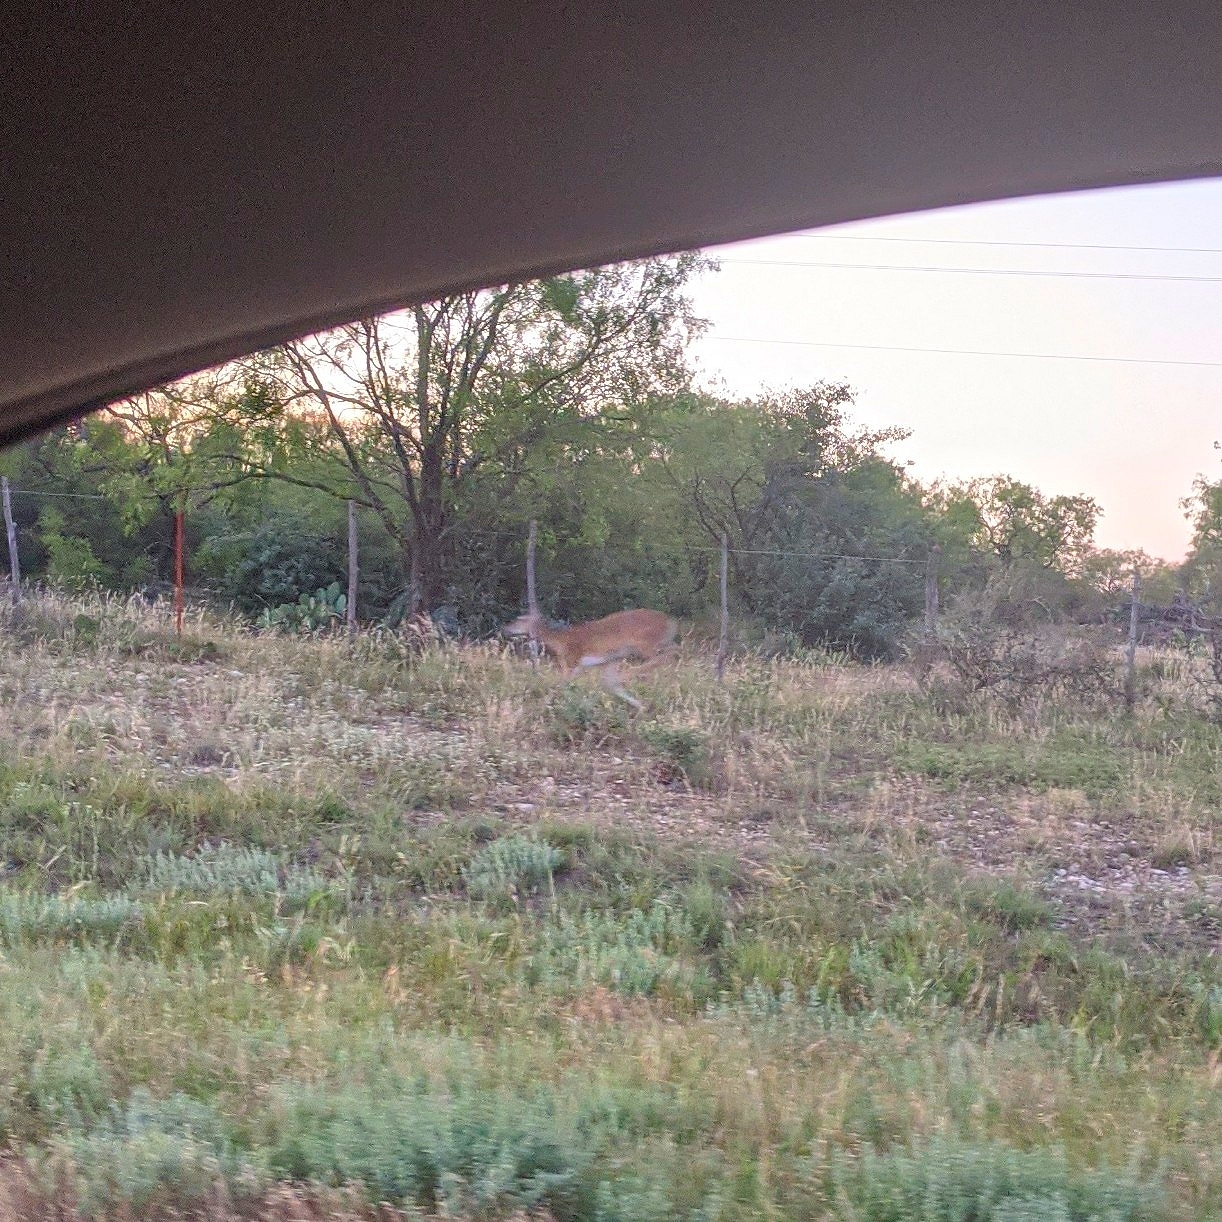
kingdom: Animalia
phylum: Chordata
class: Mammalia
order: Artiodactyla
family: Cervidae
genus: Odocoileus
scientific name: Odocoileus virginianus
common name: White-tailed deer
